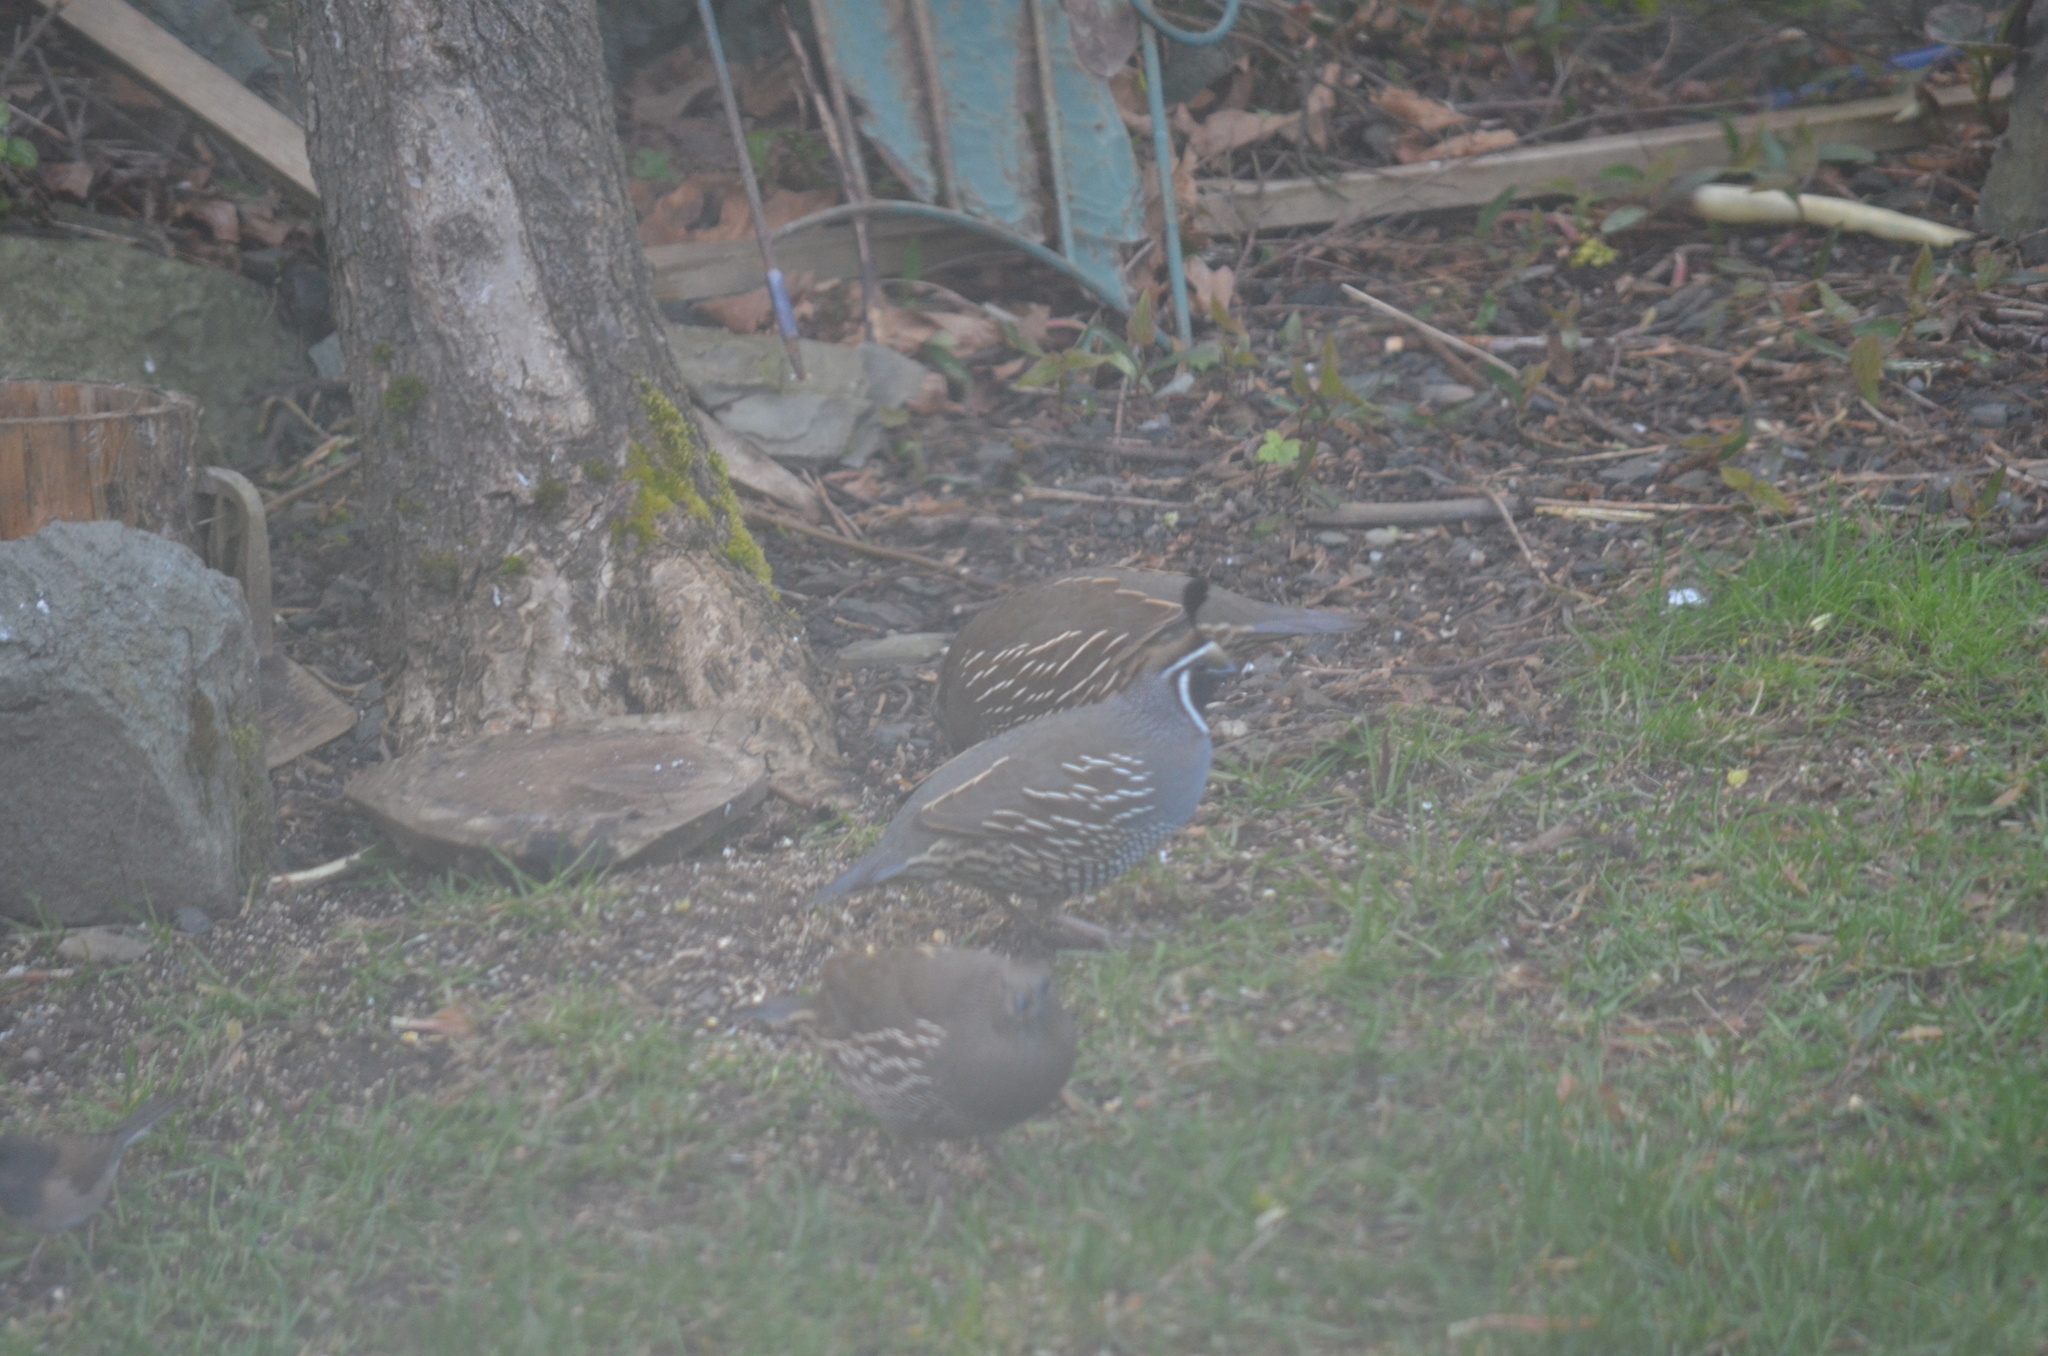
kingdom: Animalia
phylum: Chordata
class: Aves
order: Galliformes
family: Odontophoridae
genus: Callipepla
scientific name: Callipepla californica
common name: California quail
